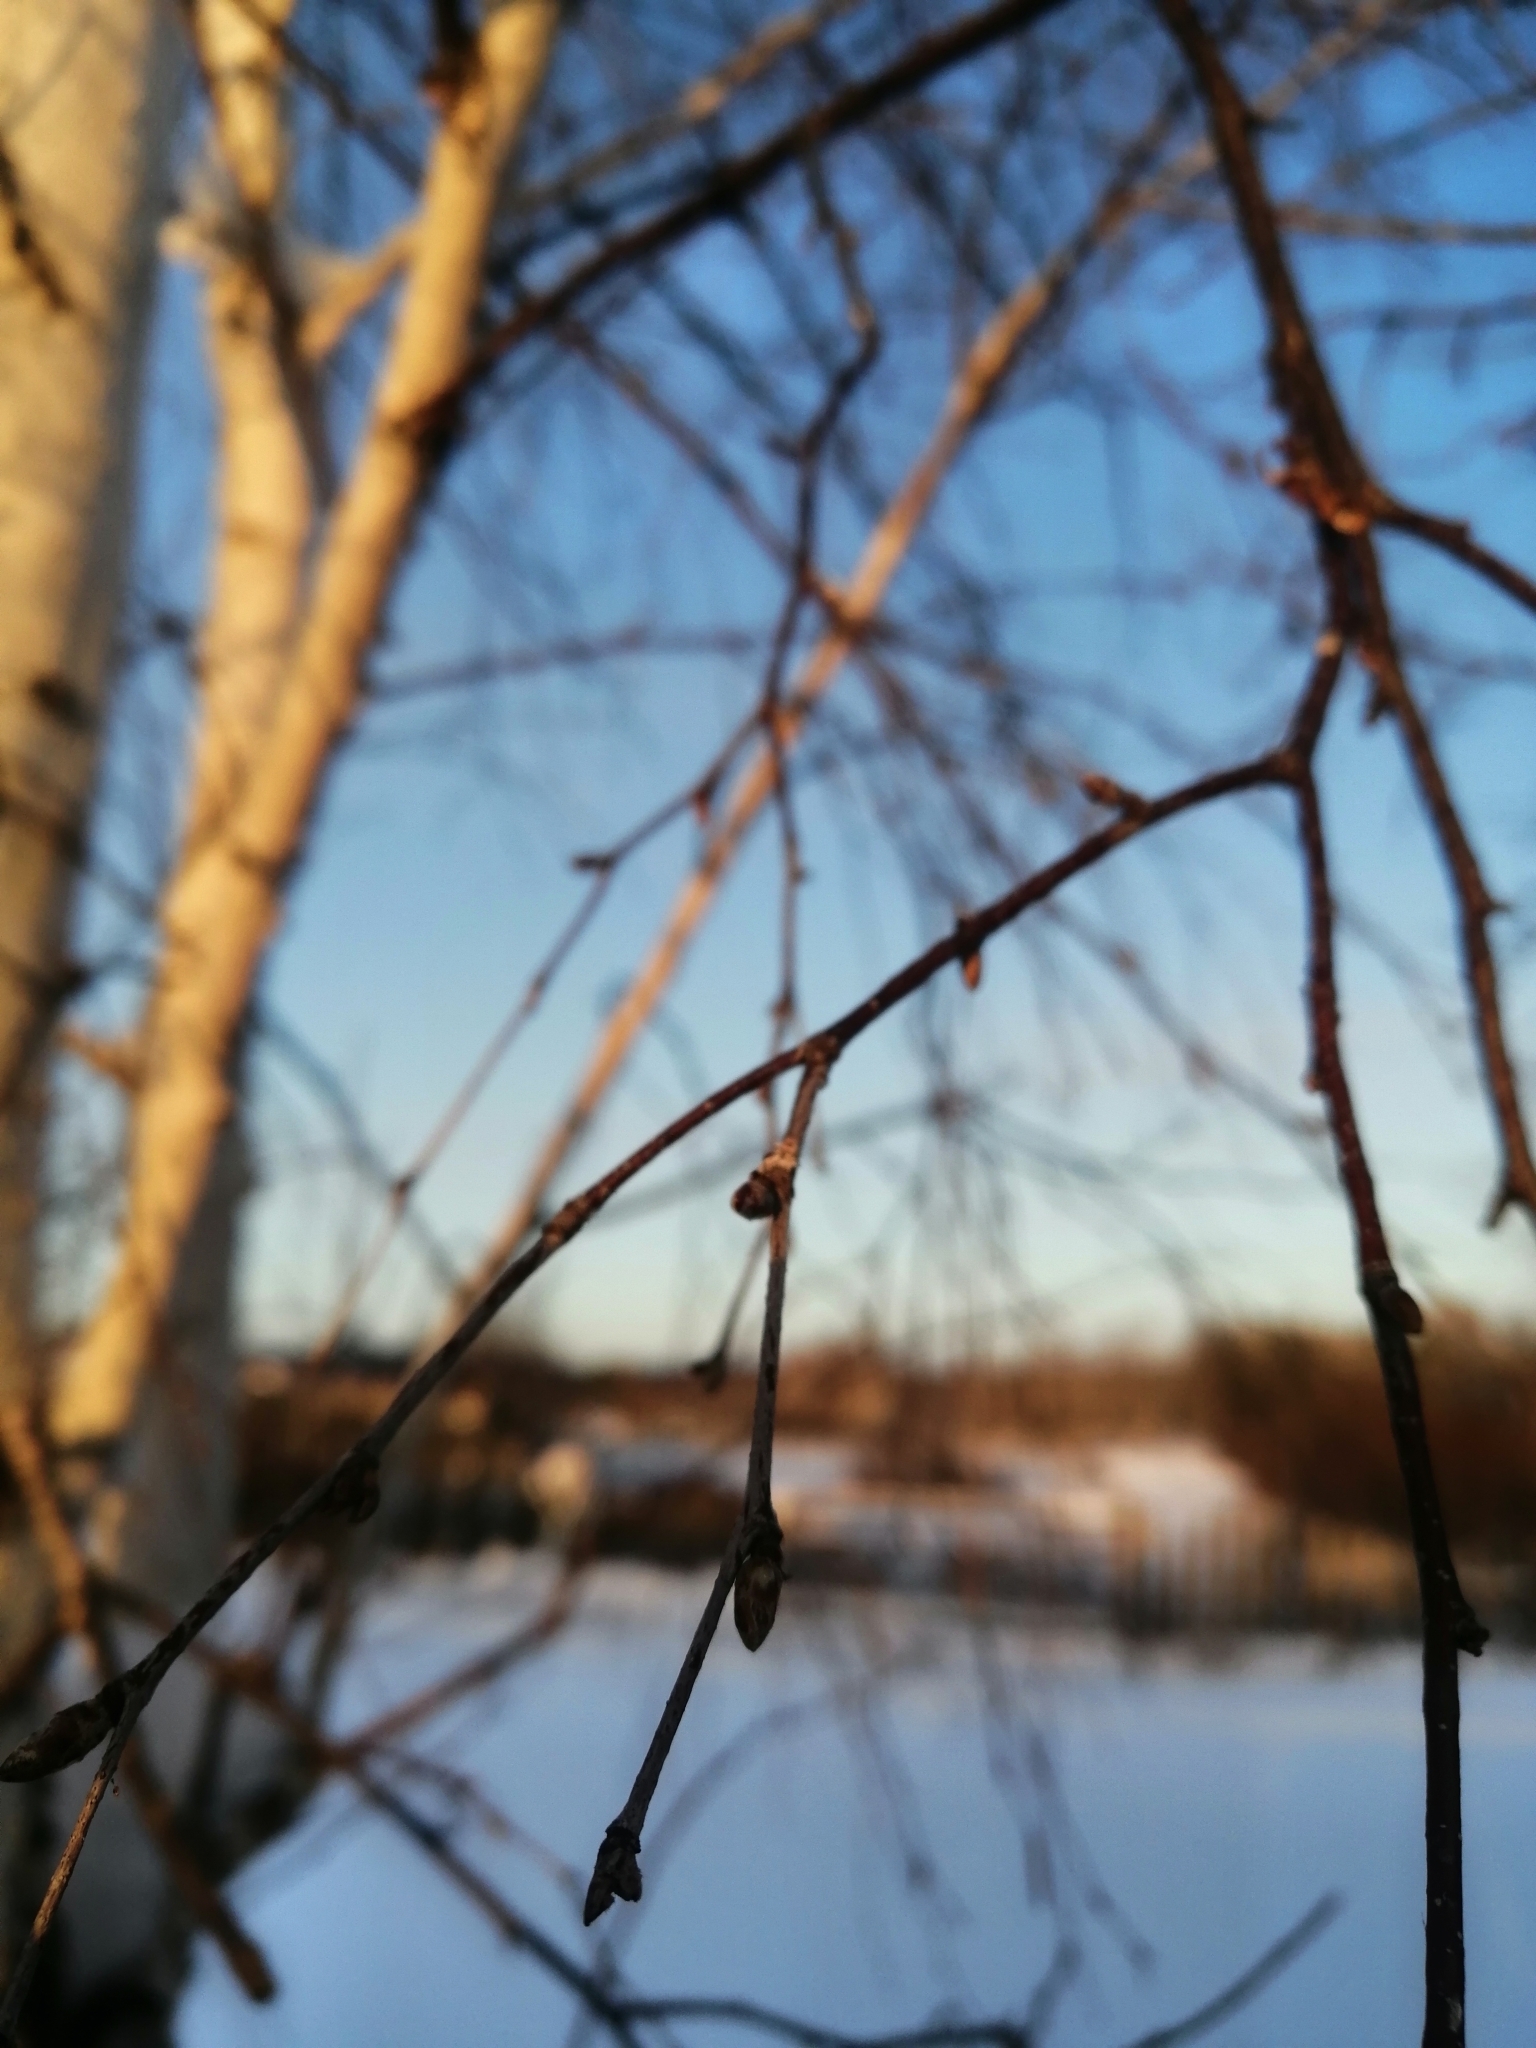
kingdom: Plantae
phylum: Tracheophyta
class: Magnoliopsida
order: Fagales
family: Betulaceae
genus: Betula
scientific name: Betula pendula
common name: Silver birch
